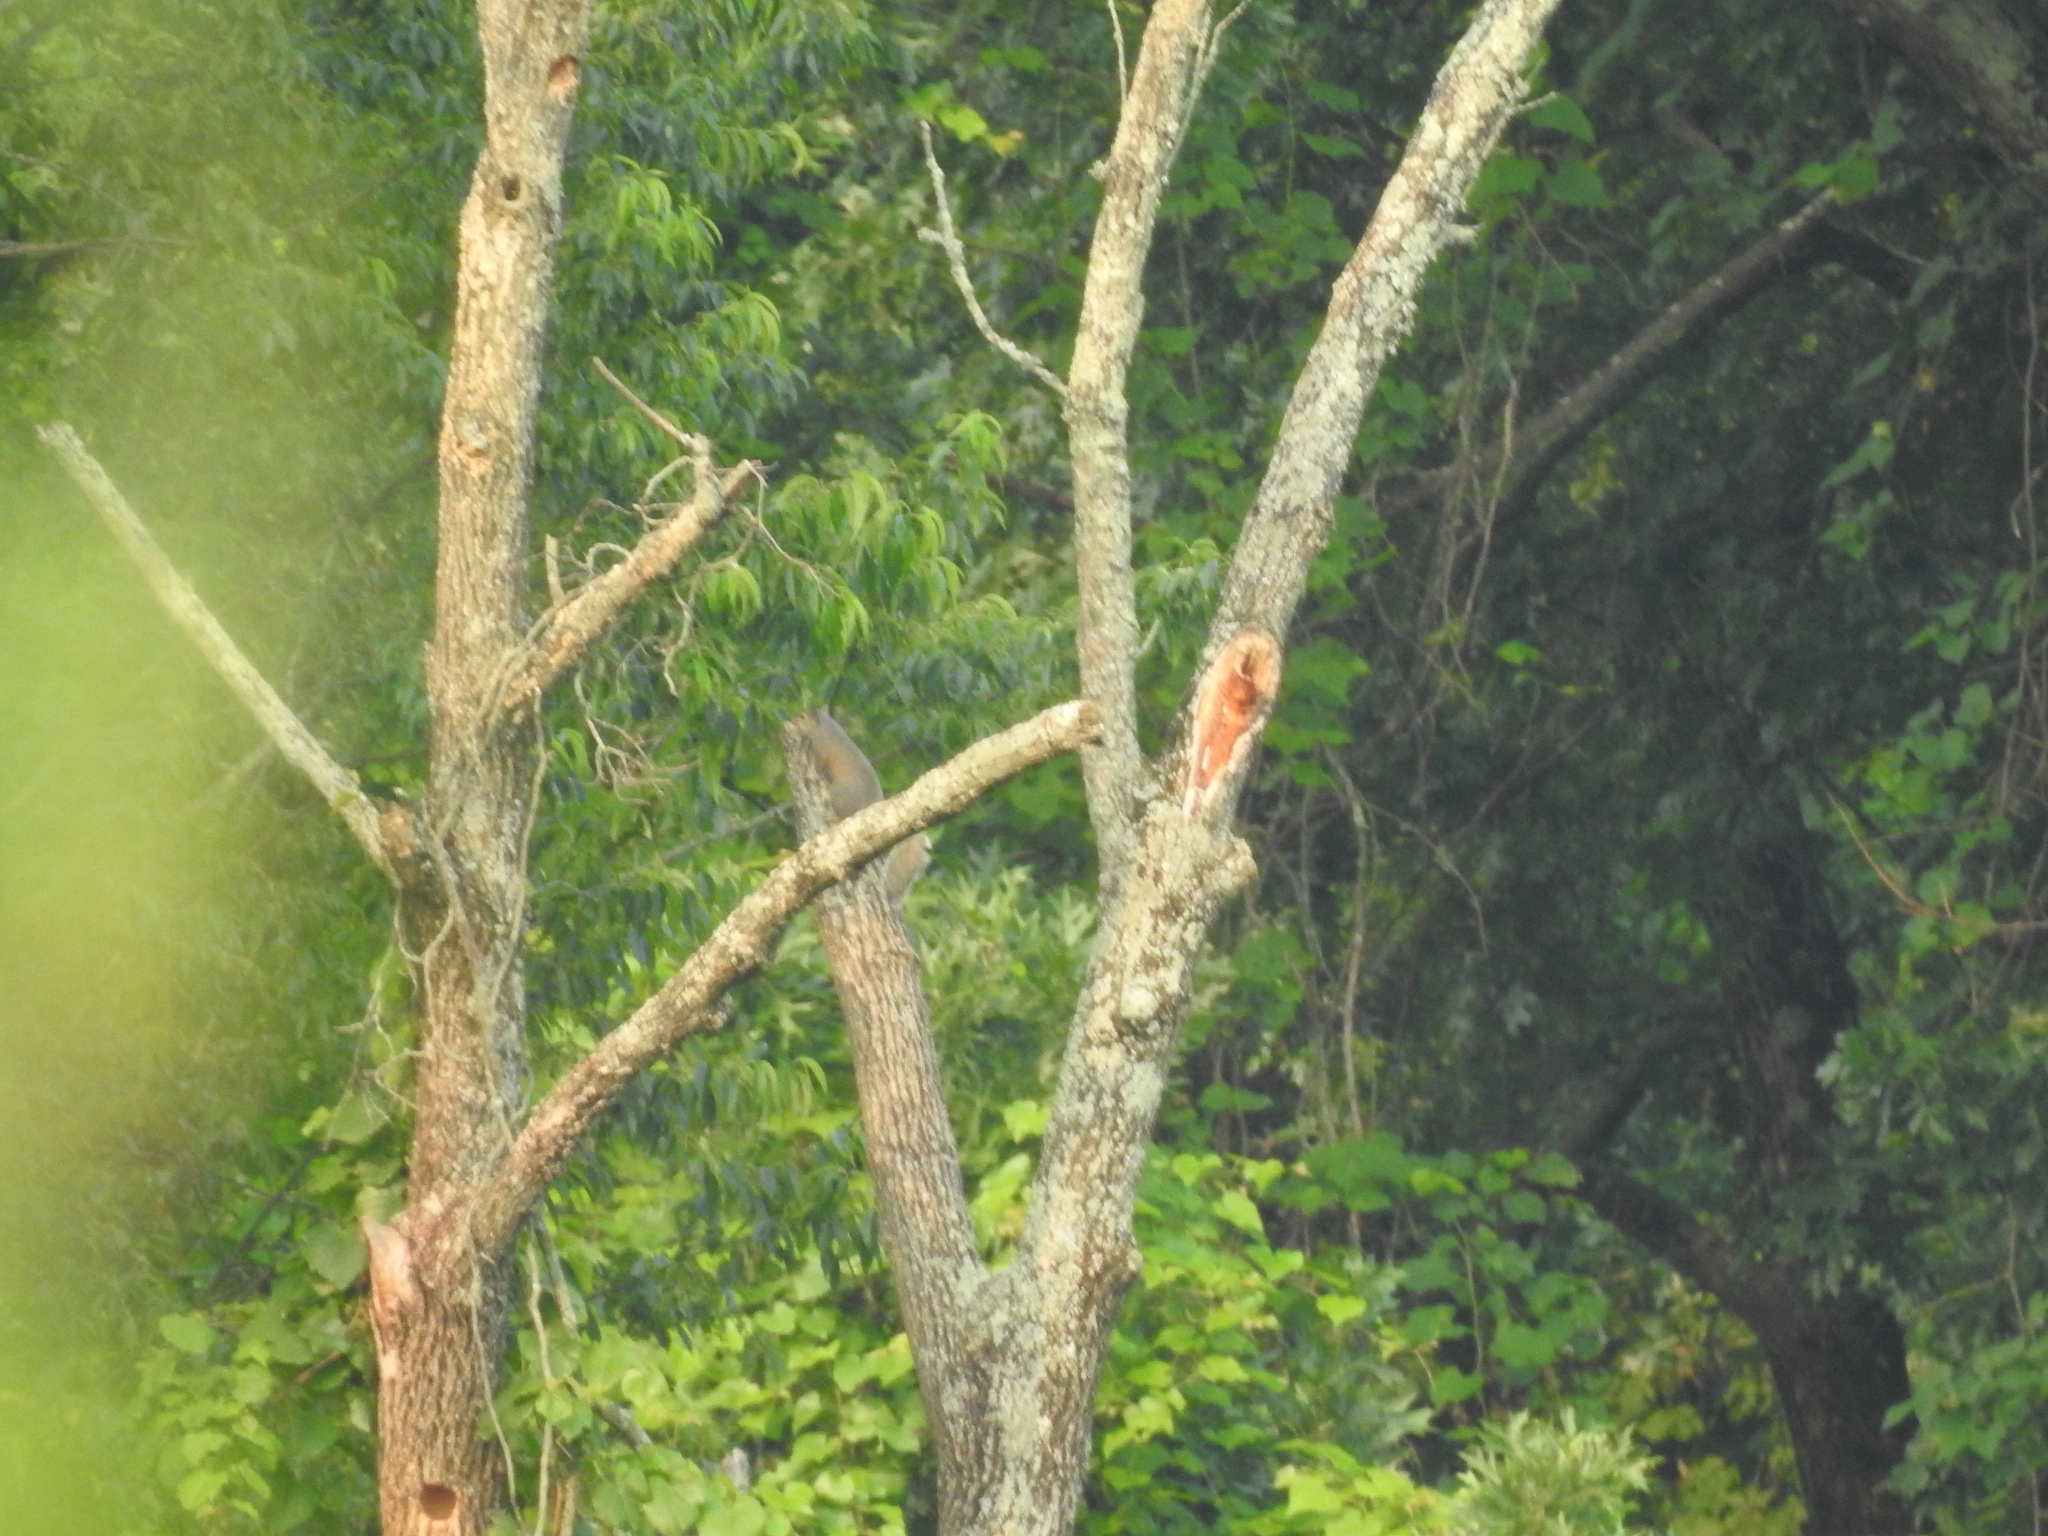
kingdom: Animalia
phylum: Chordata
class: Mammalia
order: Rodentia
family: Sciuridae
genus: Sciurus
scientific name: Sciurus carolinensis
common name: Eastern gray squirrel
